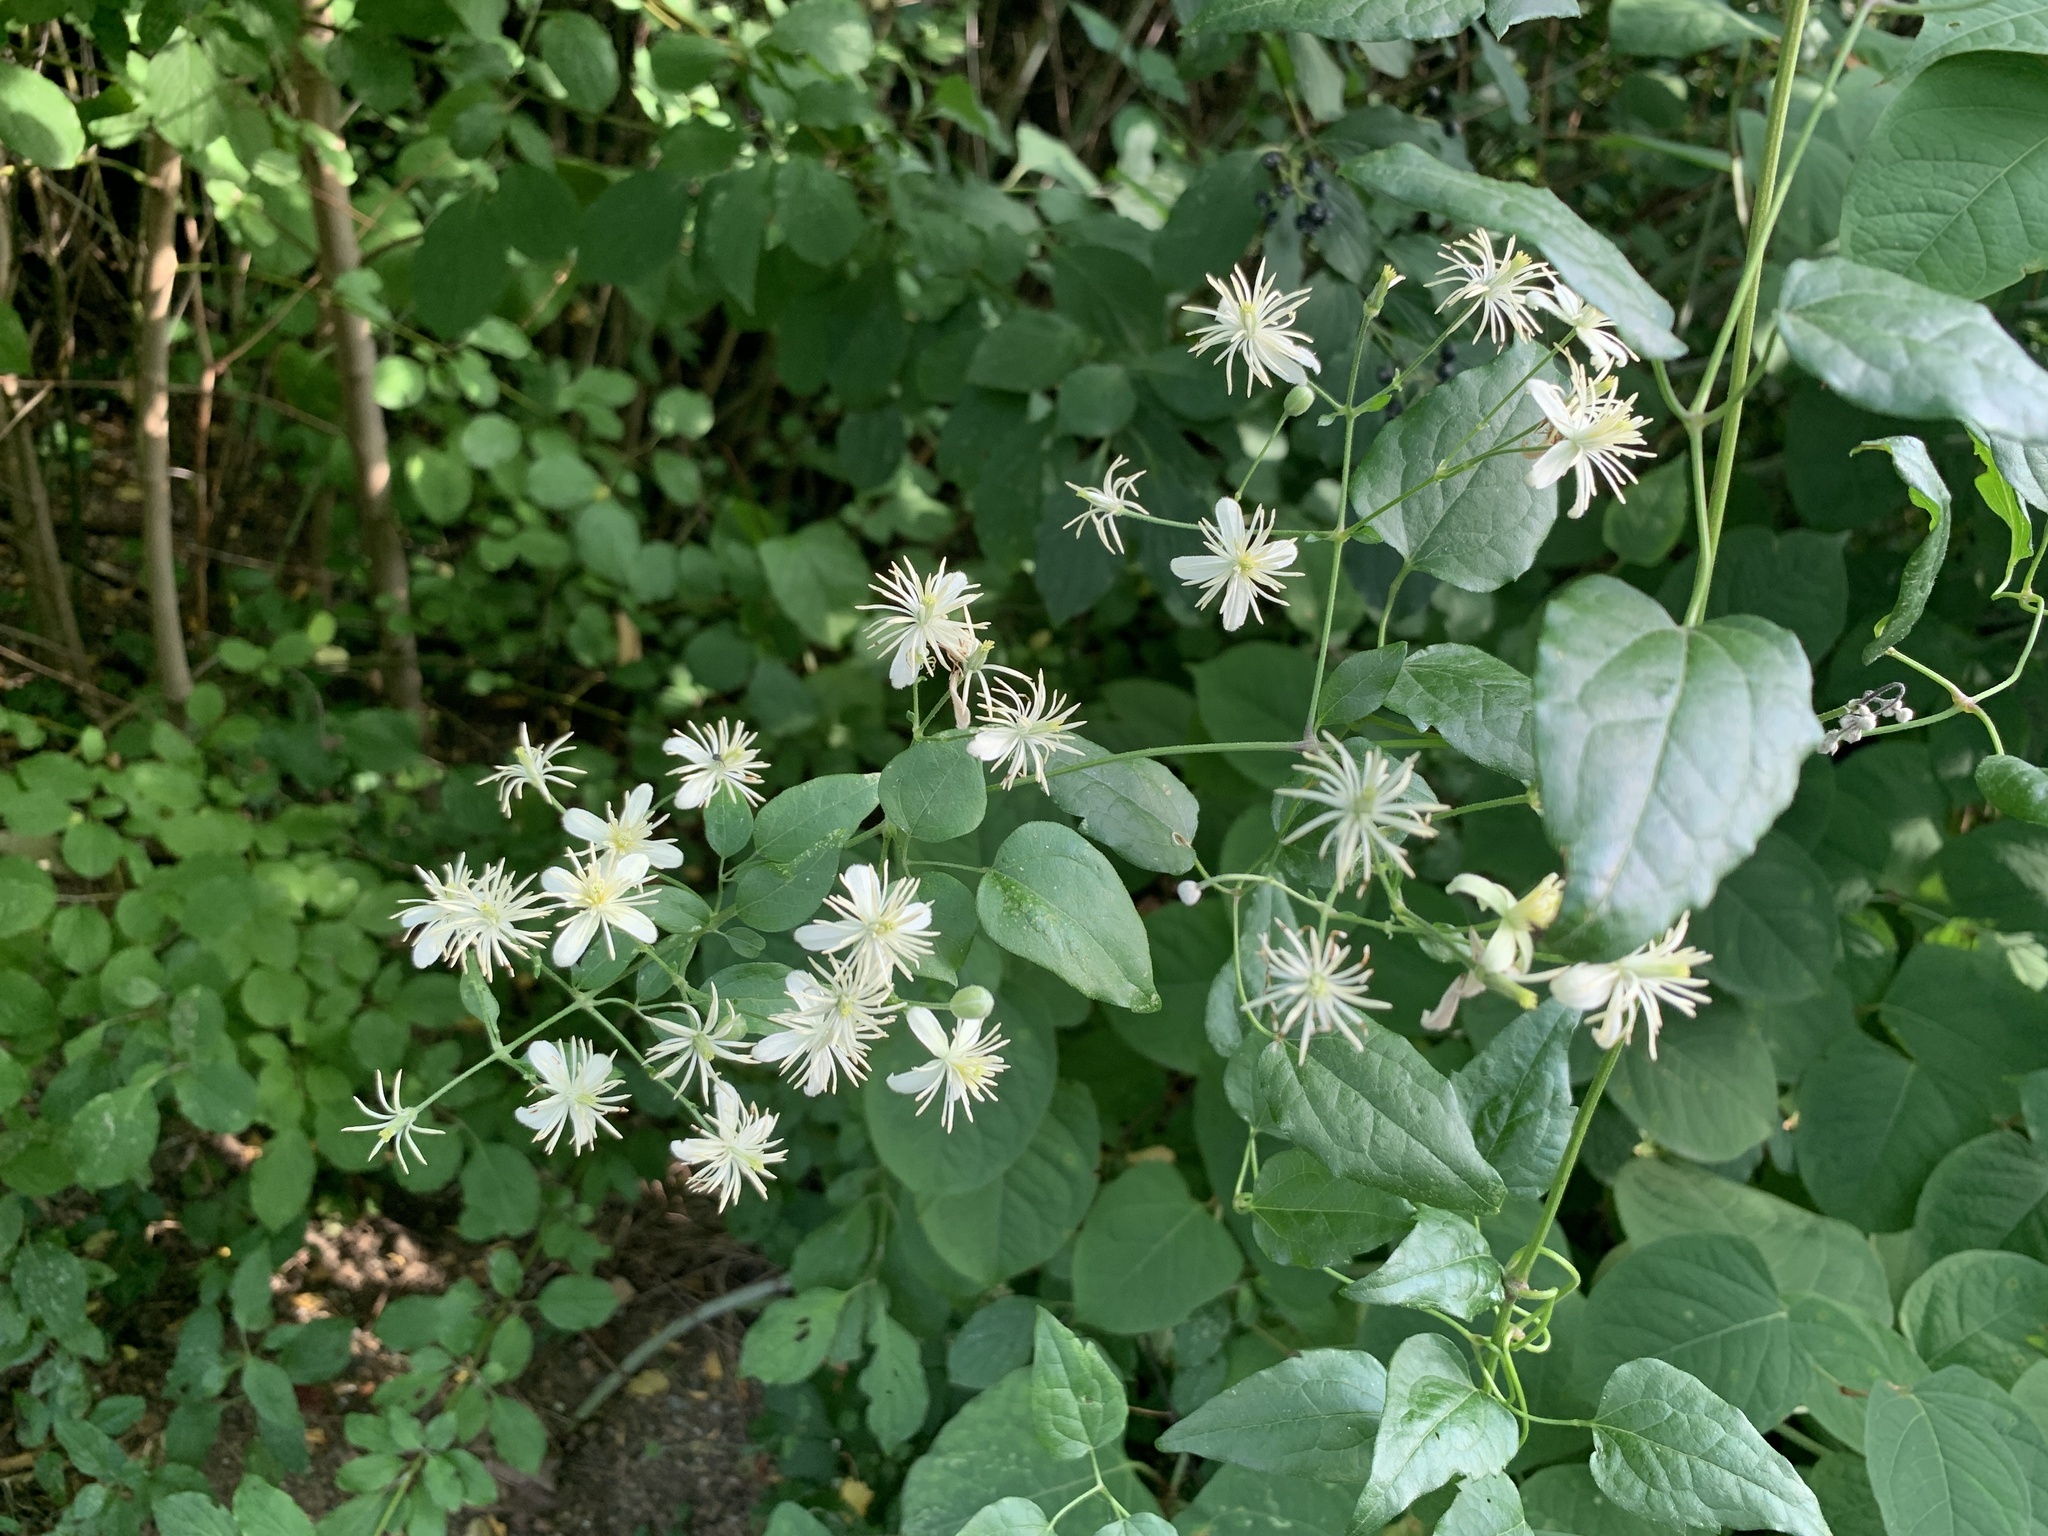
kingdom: Plantae
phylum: Tracheophyta
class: Magnoliopsida
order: Ranunculales
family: Ranunculaceae
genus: Clematis
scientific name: Clematis vitalba
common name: Evergreen clematis
